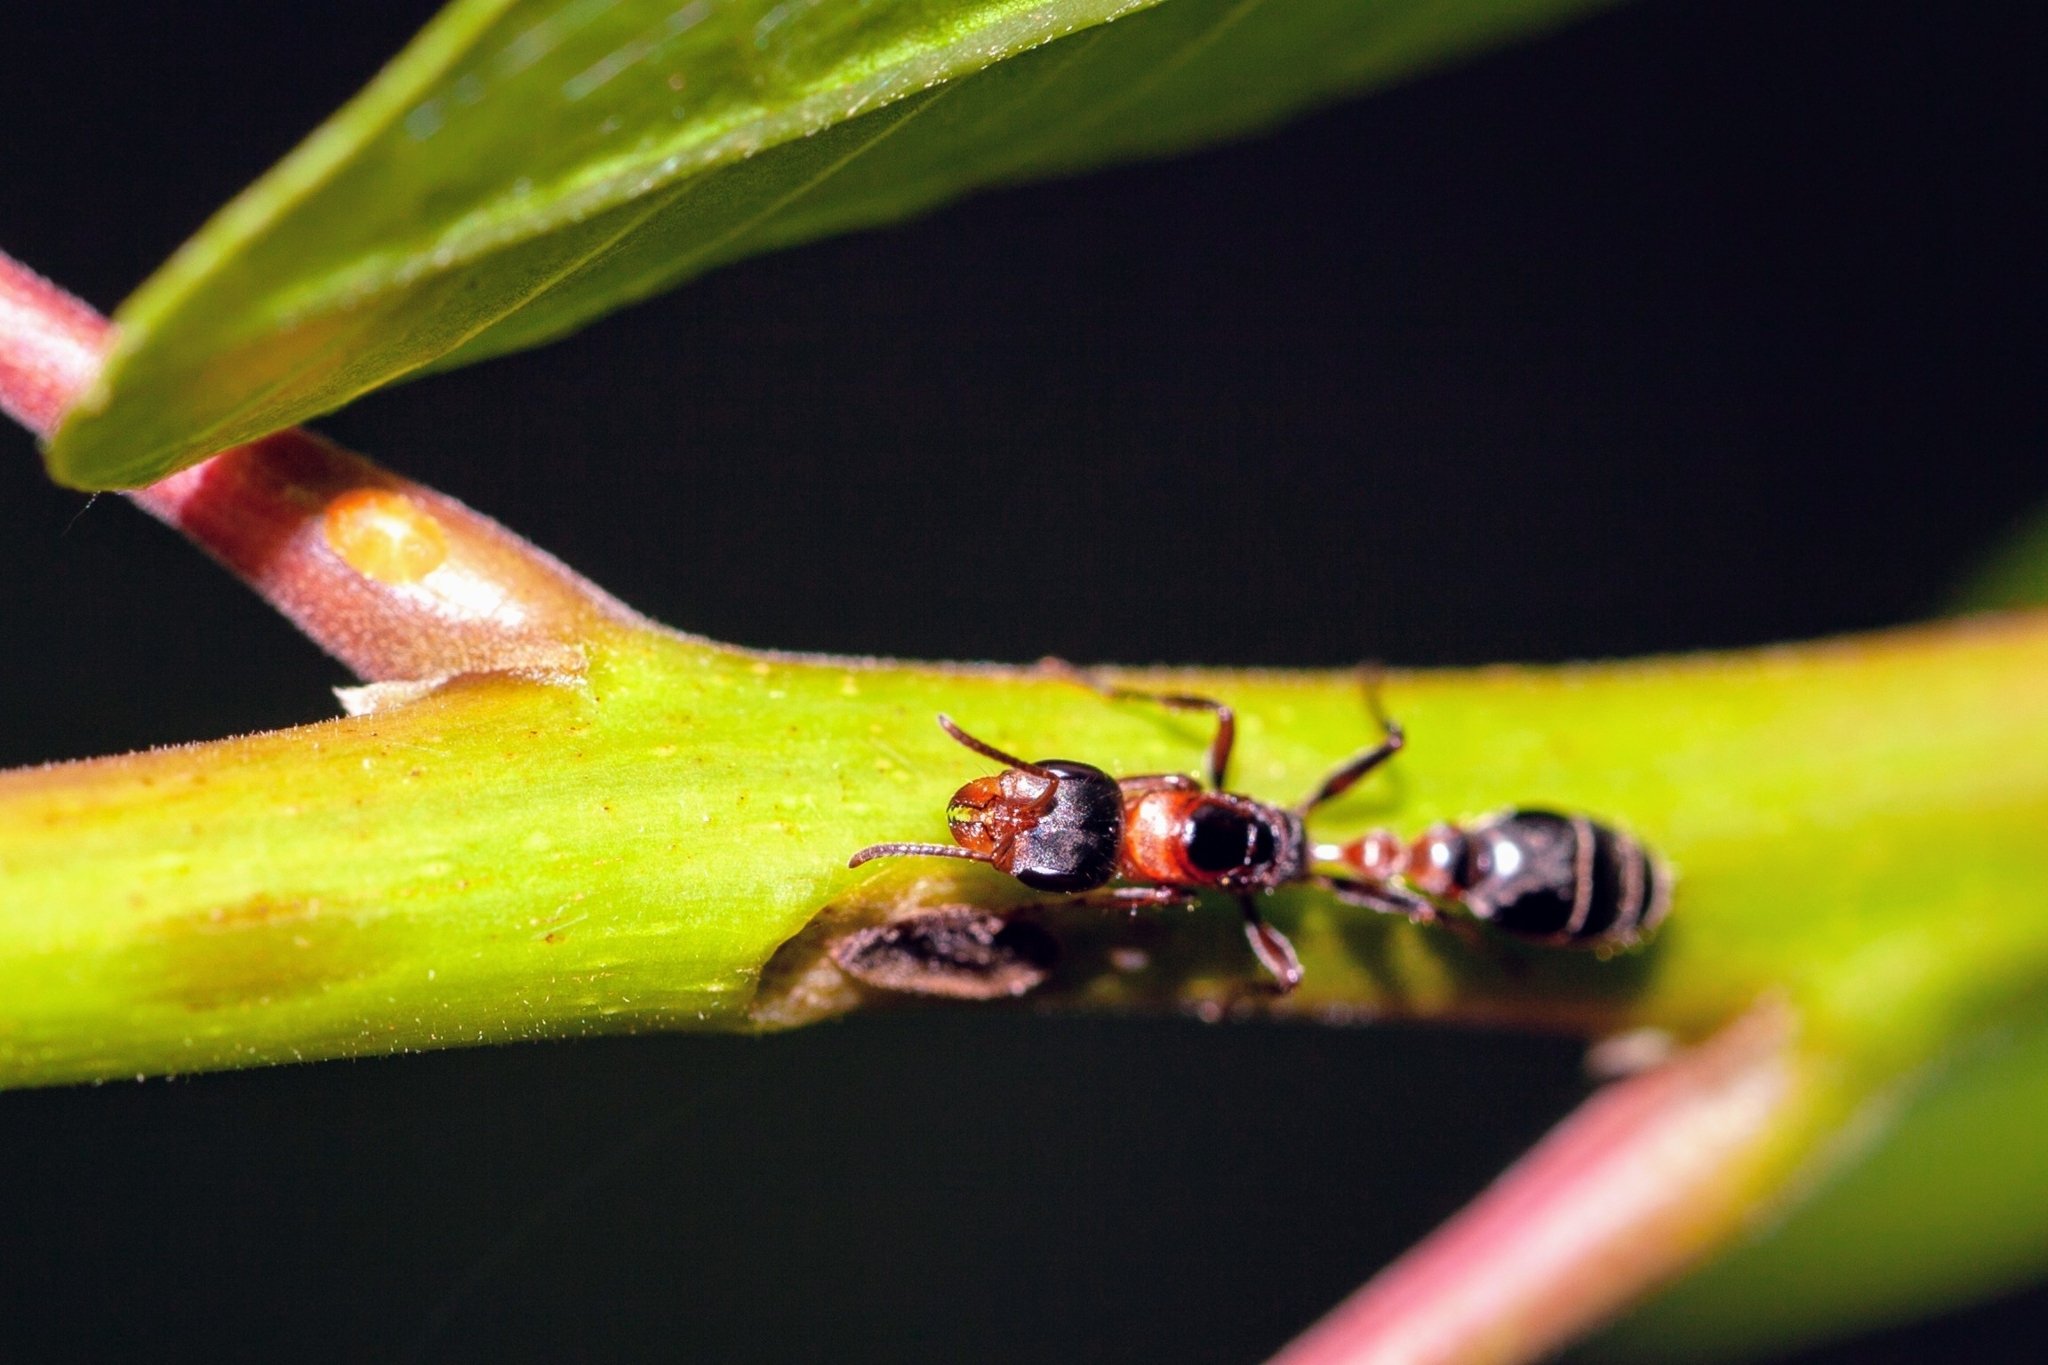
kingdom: Animalia
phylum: Arthropoda
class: Insecta
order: Hymenoptera
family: Formicidae
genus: Pseudomyrmex
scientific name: Pseudomyrmex gracilis
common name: Graceful twig ant
